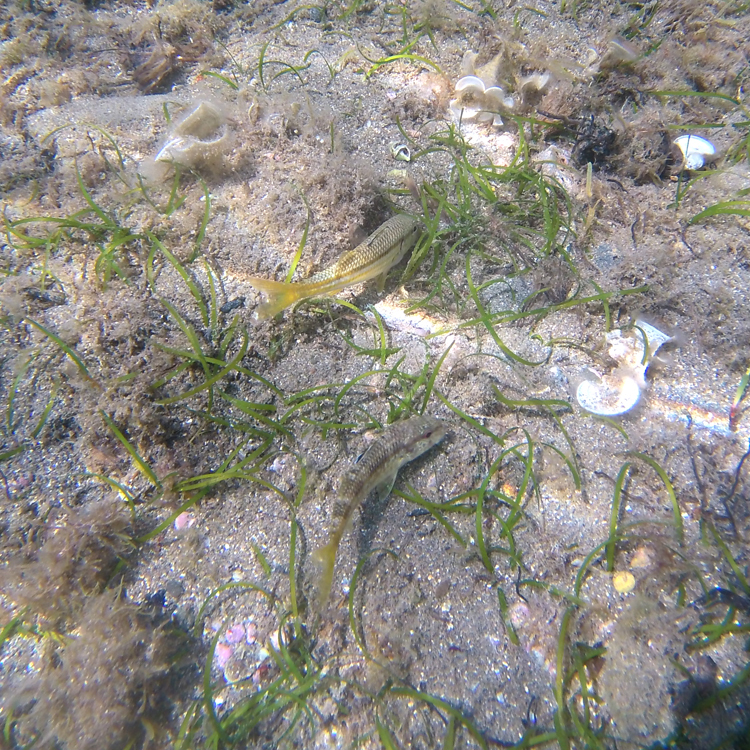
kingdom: Animalia
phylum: Chordata
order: Perciformes
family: Mullidae
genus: Mullus
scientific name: Mullus surmuletus
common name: Red mullet
